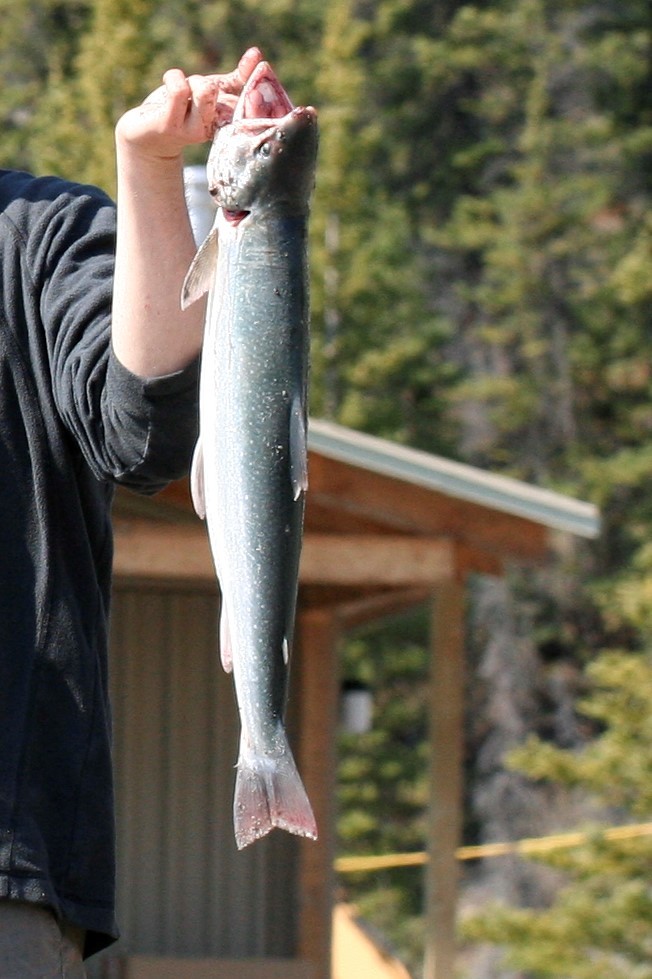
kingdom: Animalia
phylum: Chordata
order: Salmoniformes
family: Salmonidae
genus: Salvelinus
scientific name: Salvelinus malma
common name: Dolly varden charr
